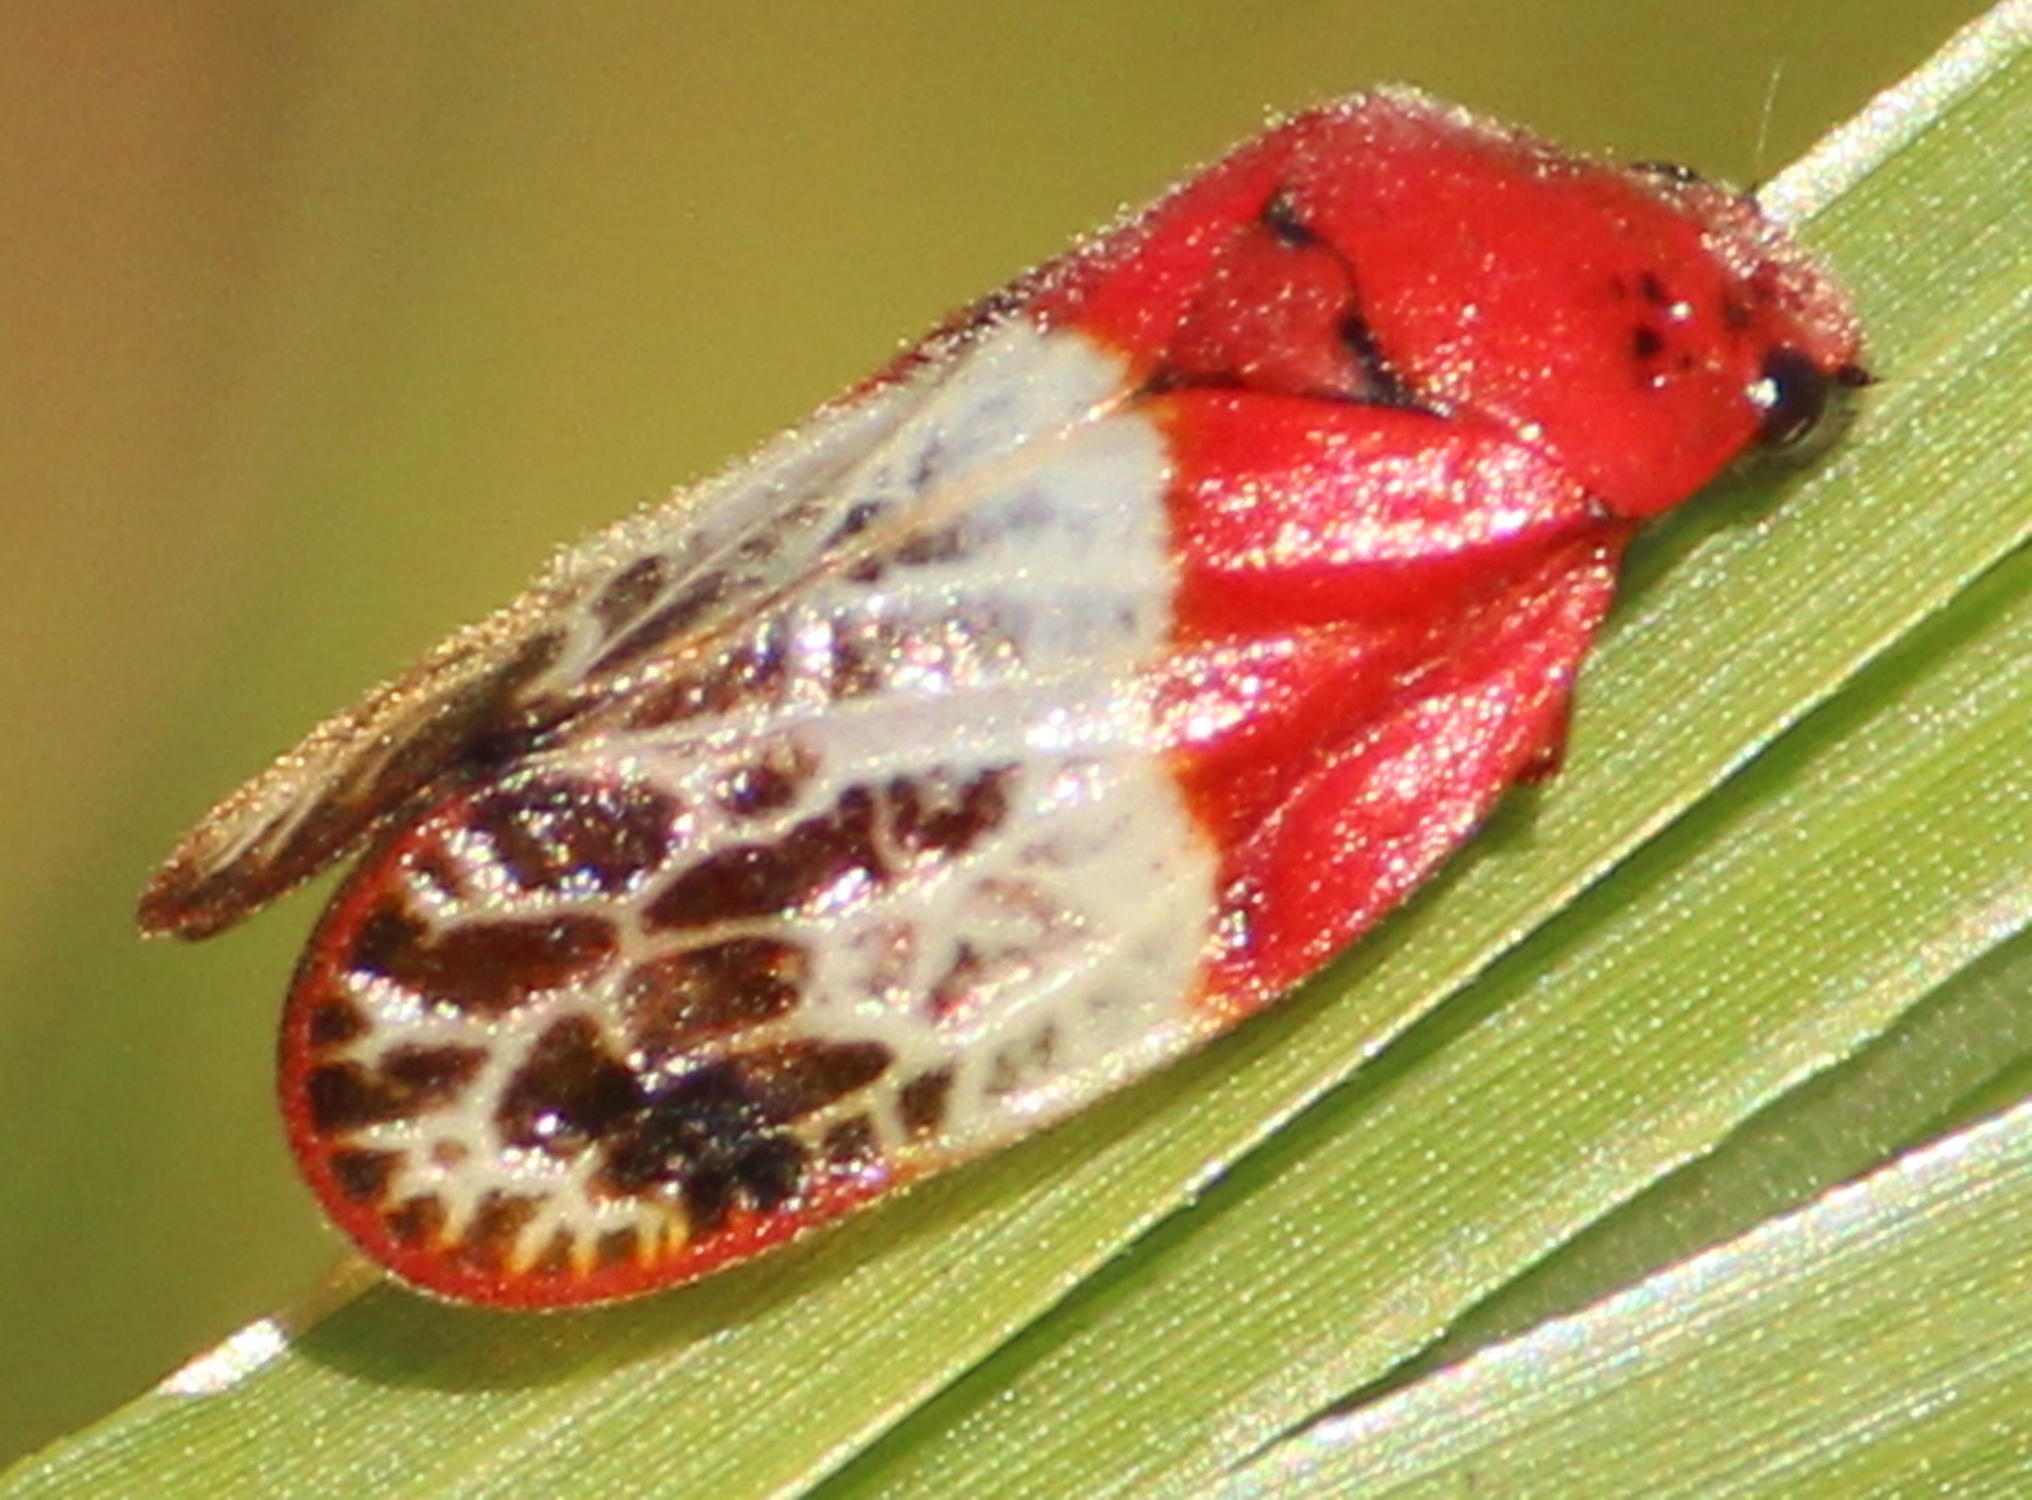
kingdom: Animalia
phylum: Arthropoda
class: Insecta
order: Hemiptera
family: Cercopidae
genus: Locris
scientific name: Locris junodi
